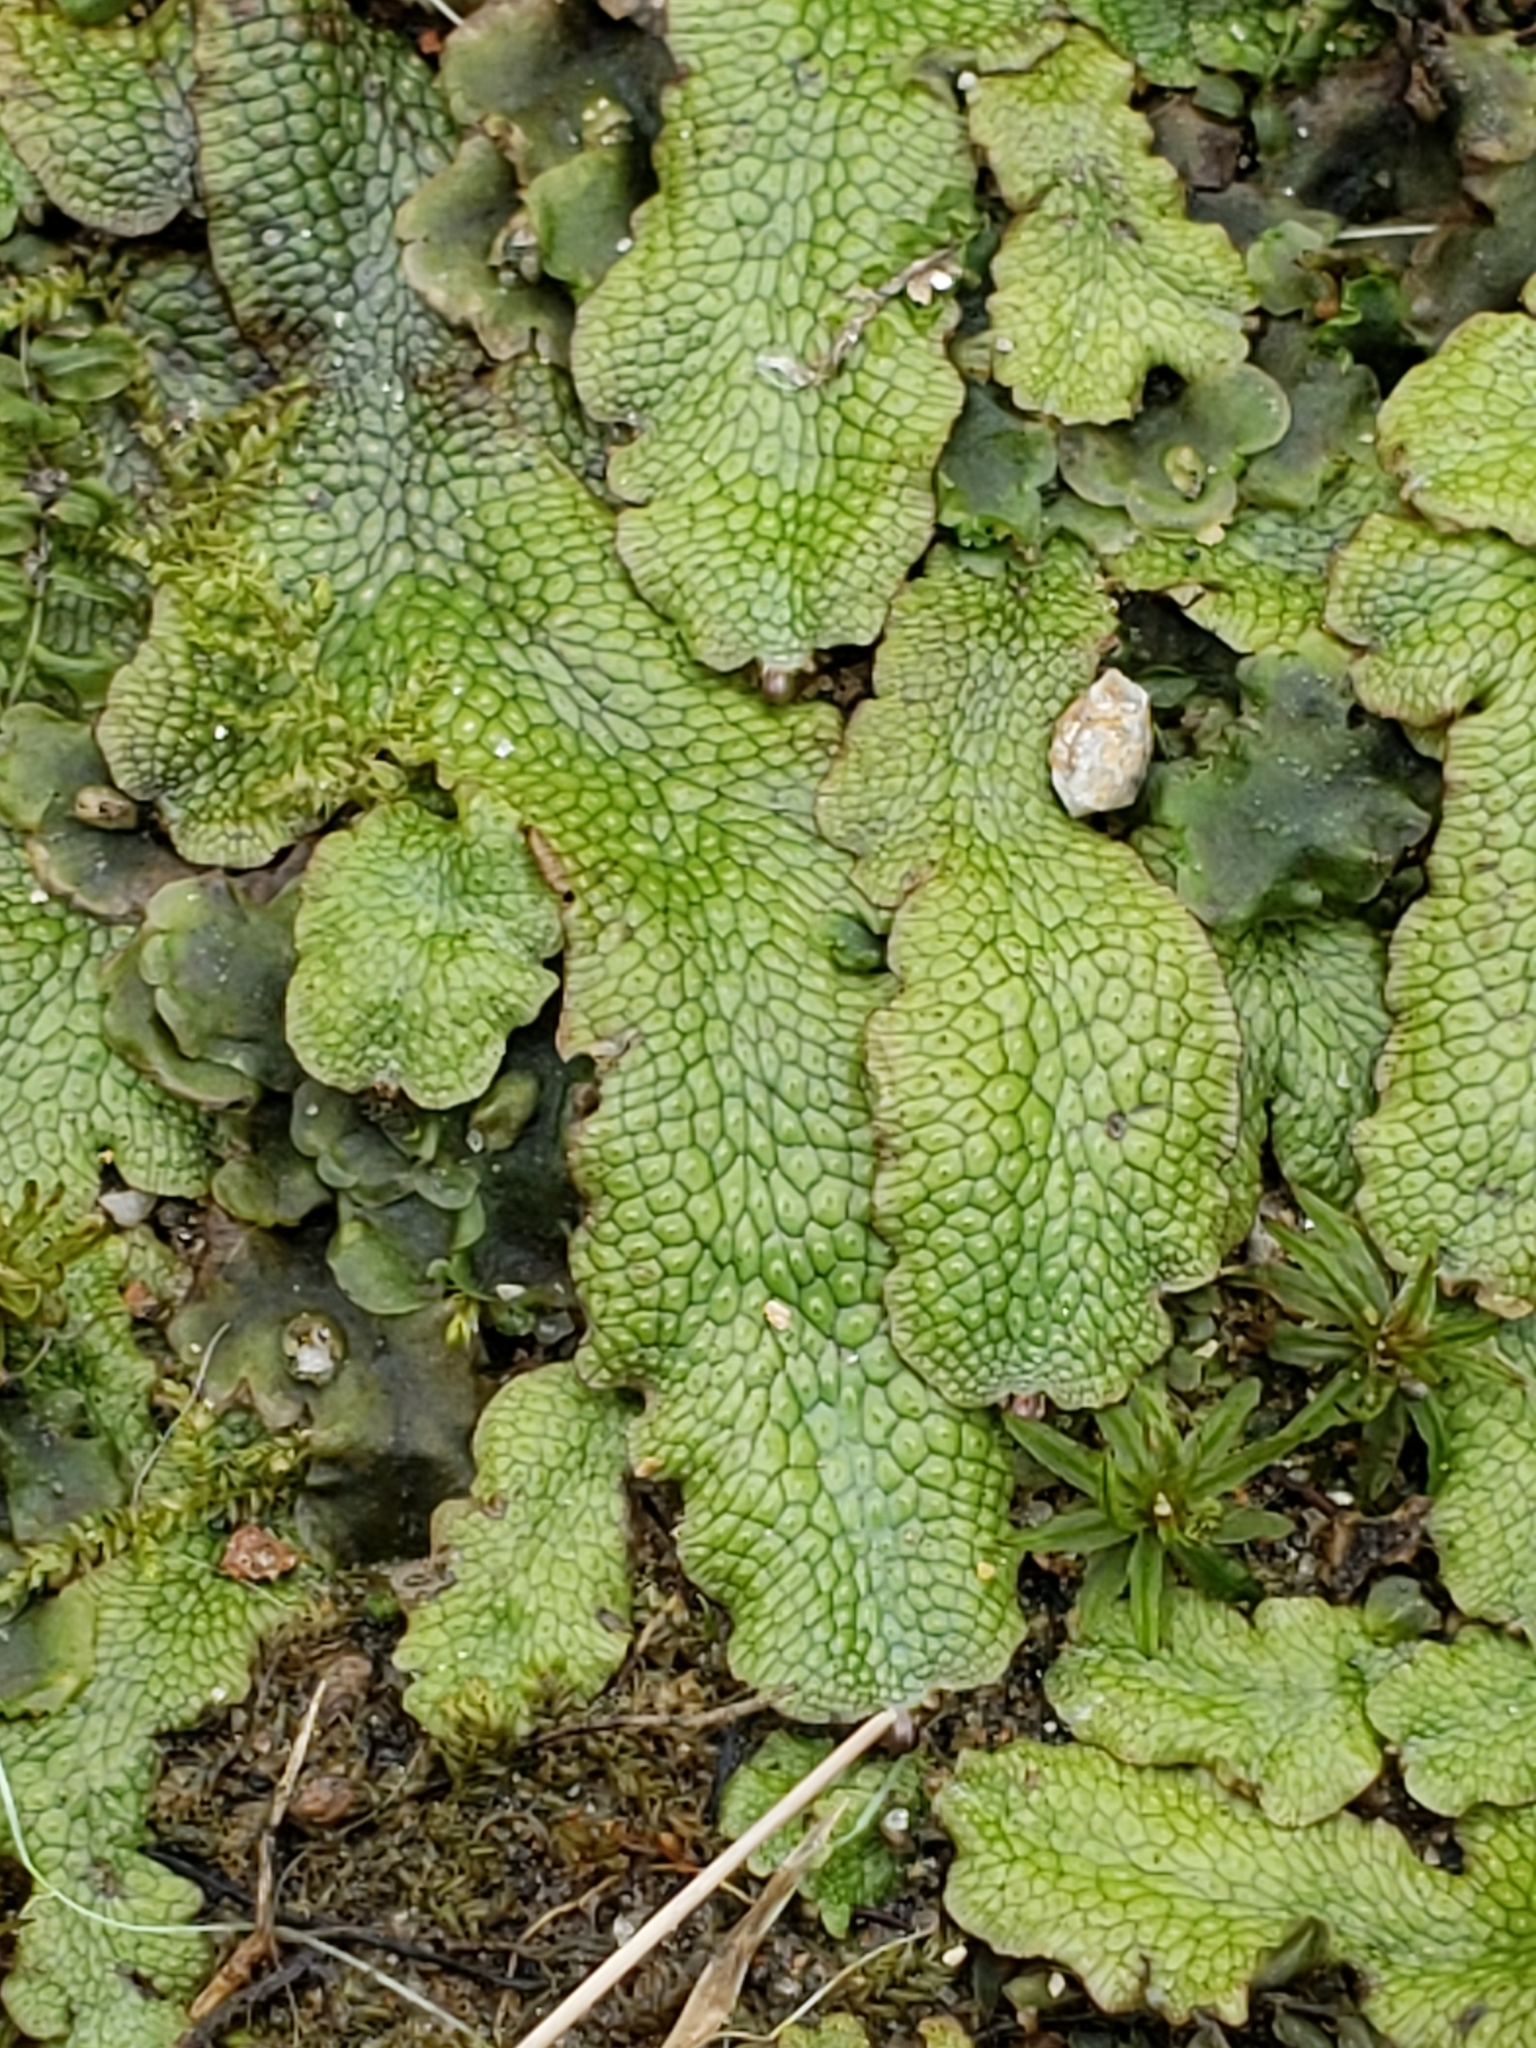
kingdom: Plantae
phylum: Marchantiophyta
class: Marchantiopsida
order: Marchantiales
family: Conocephalaceae
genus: Conocephalum
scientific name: Conocephalum salebrosum
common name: Cat-tongue liverwort
